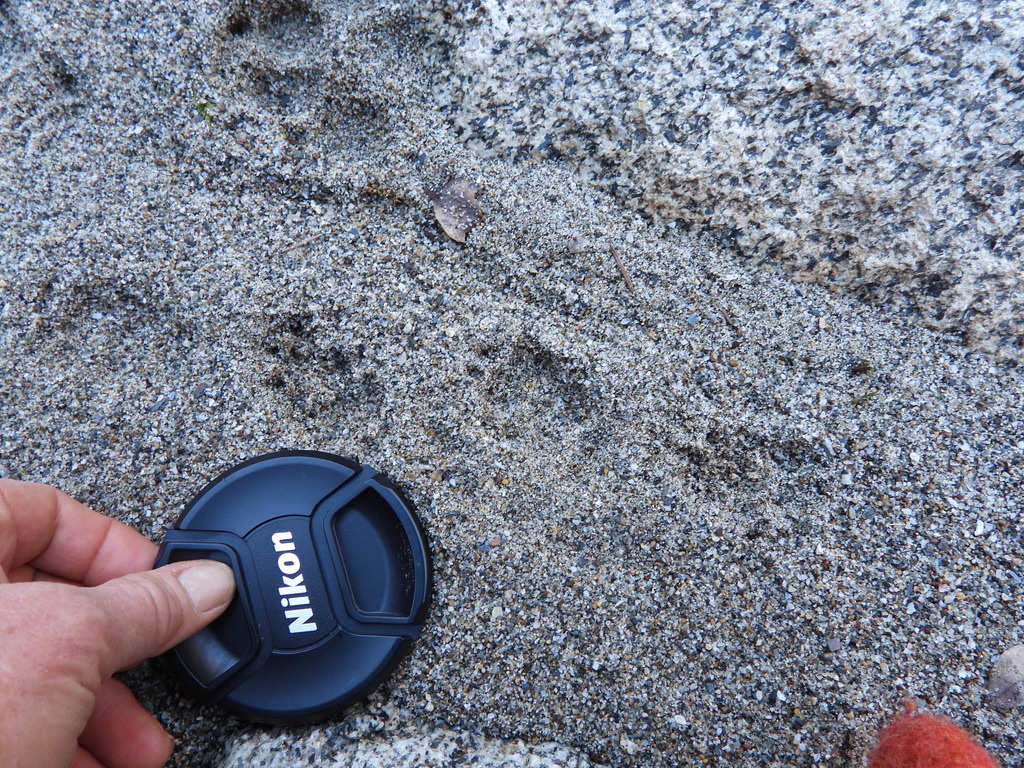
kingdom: Animalia
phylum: Chordata
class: Mammalia
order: Carnivora
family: Mustelidae
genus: Lontra
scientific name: Lontra canadensis
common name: North american river otter
